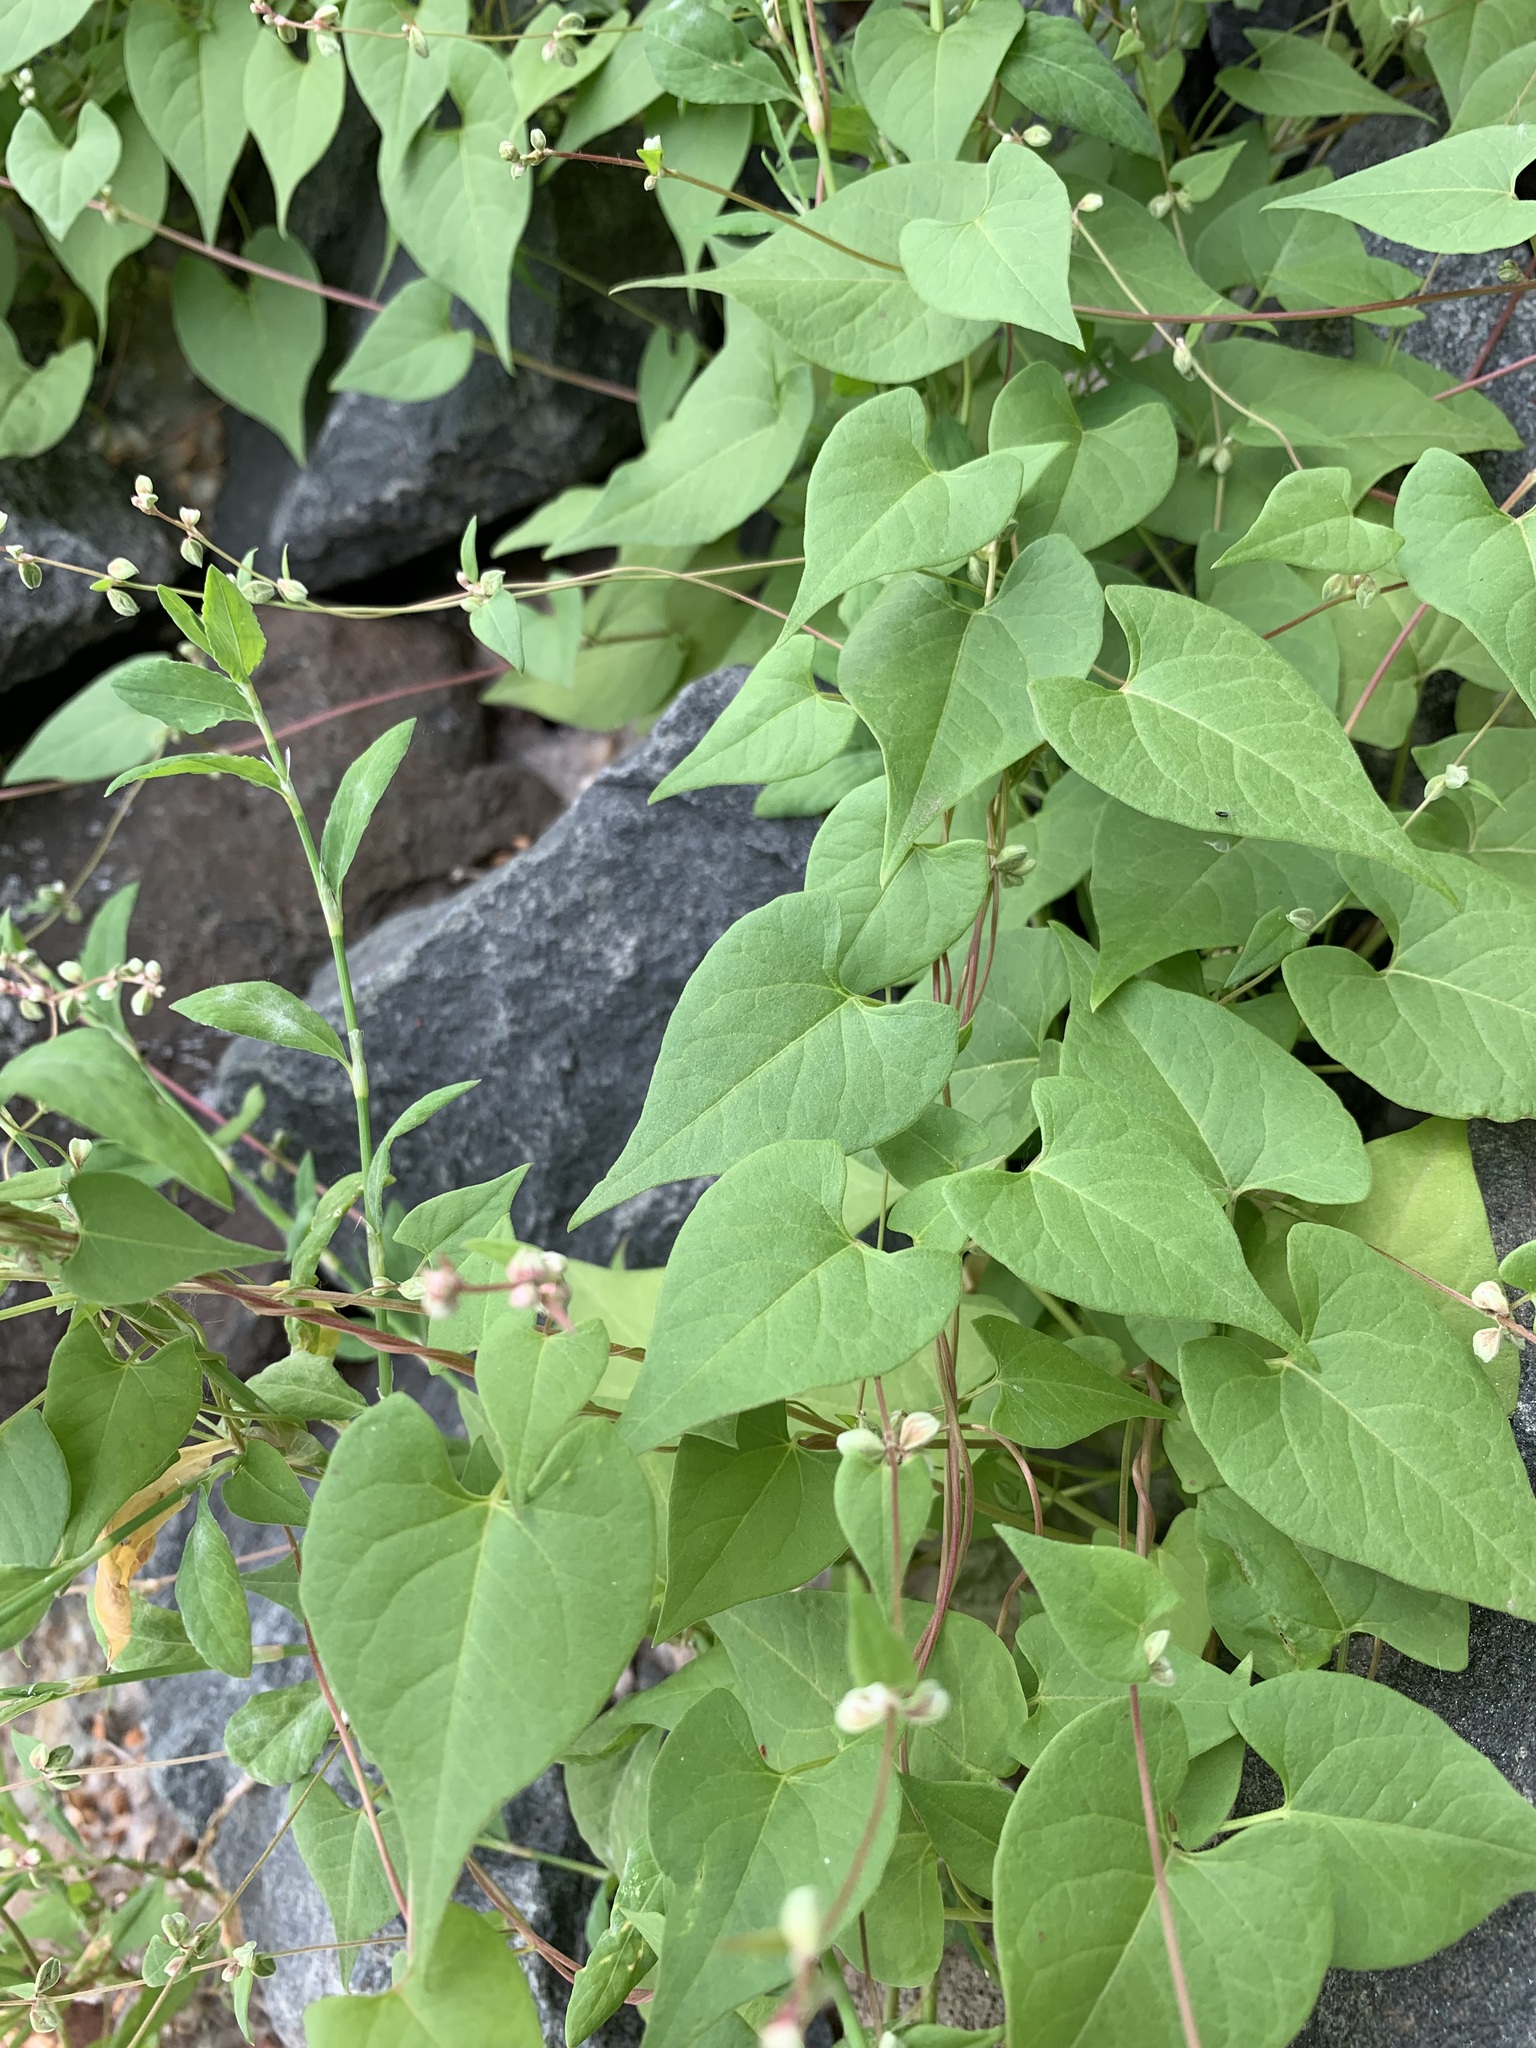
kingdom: Plantae
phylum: Tracheophyta
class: Magnoliopsida
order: Caryophyllales
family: Polygonaceae
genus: Fallopia
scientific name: Fallopia convolvulus
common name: Black bindweed
